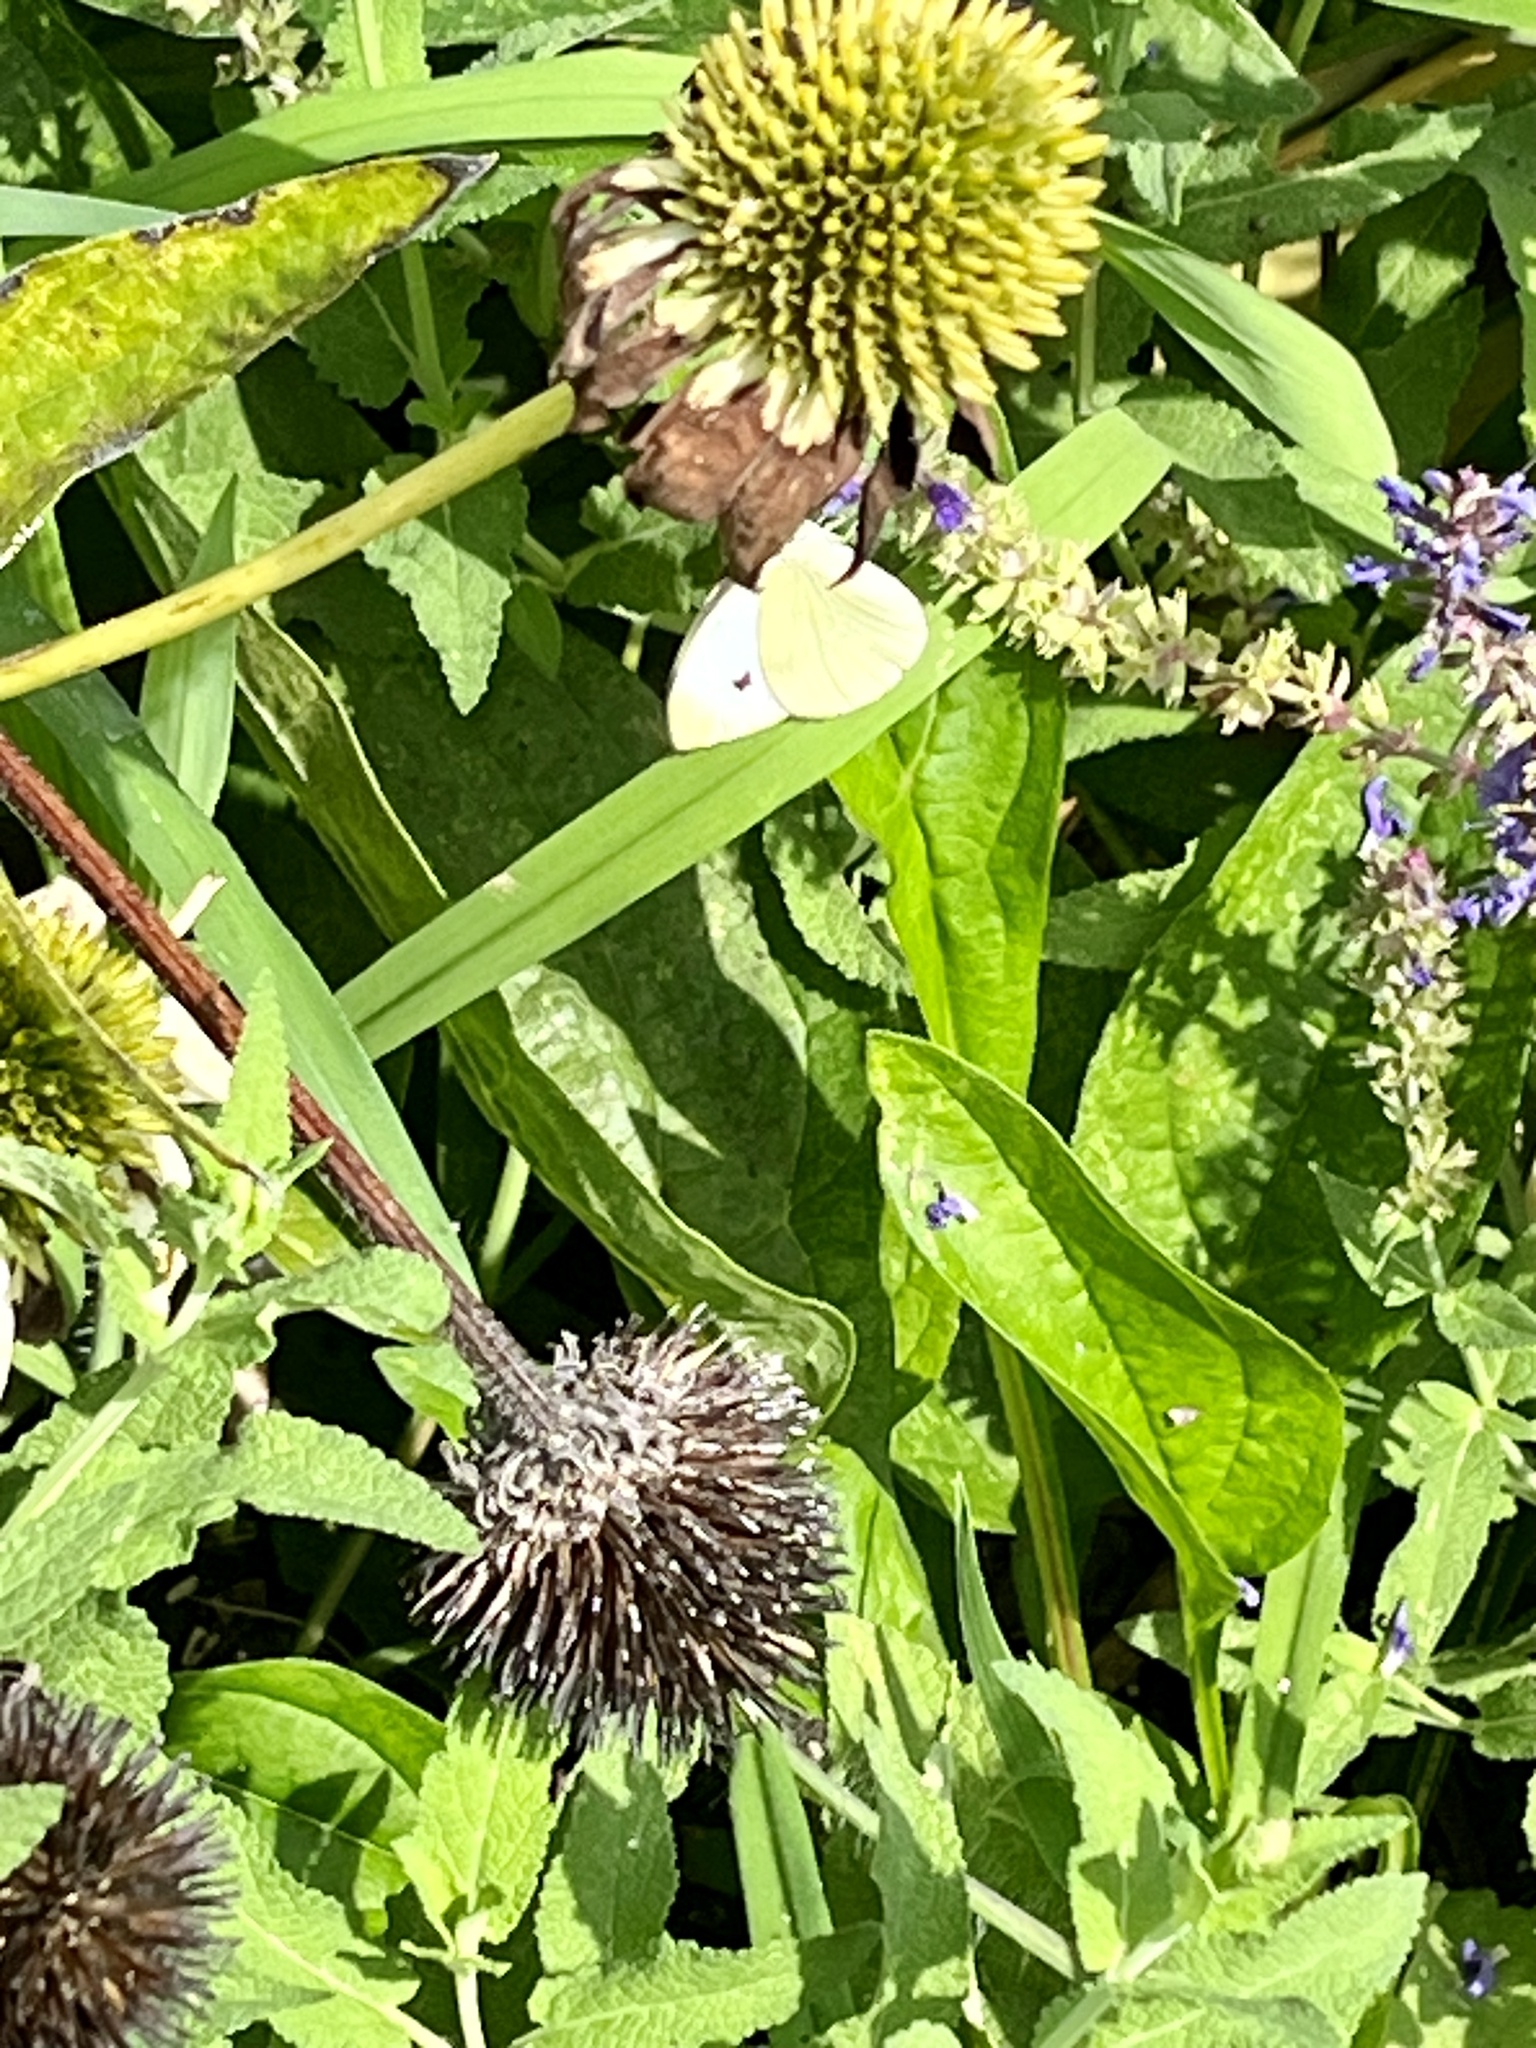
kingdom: Animalia
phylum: Arthropoda
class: Insecta
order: Lepidoptera
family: Pieridae
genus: Pieris
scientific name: Pieris rapae
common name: Small white
